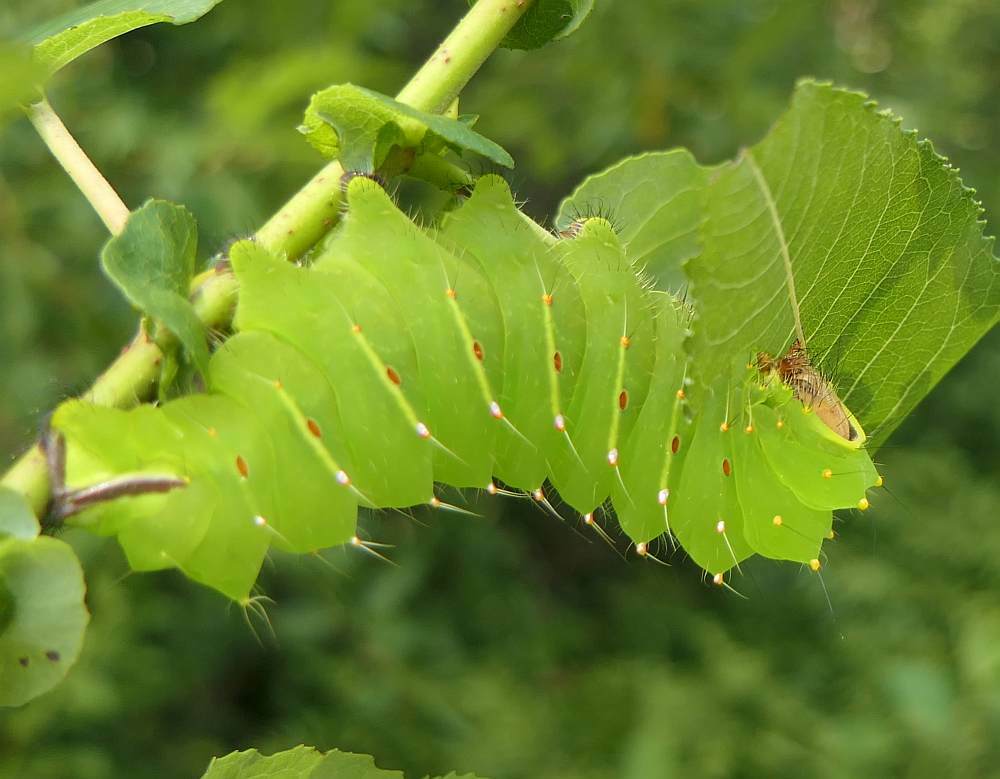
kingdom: Animalia
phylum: Arthropoda
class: Insecta
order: Lepidoptera
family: Saturniidae
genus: Antheraea
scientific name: Antheraea polyphemus
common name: Polyphemus moth
